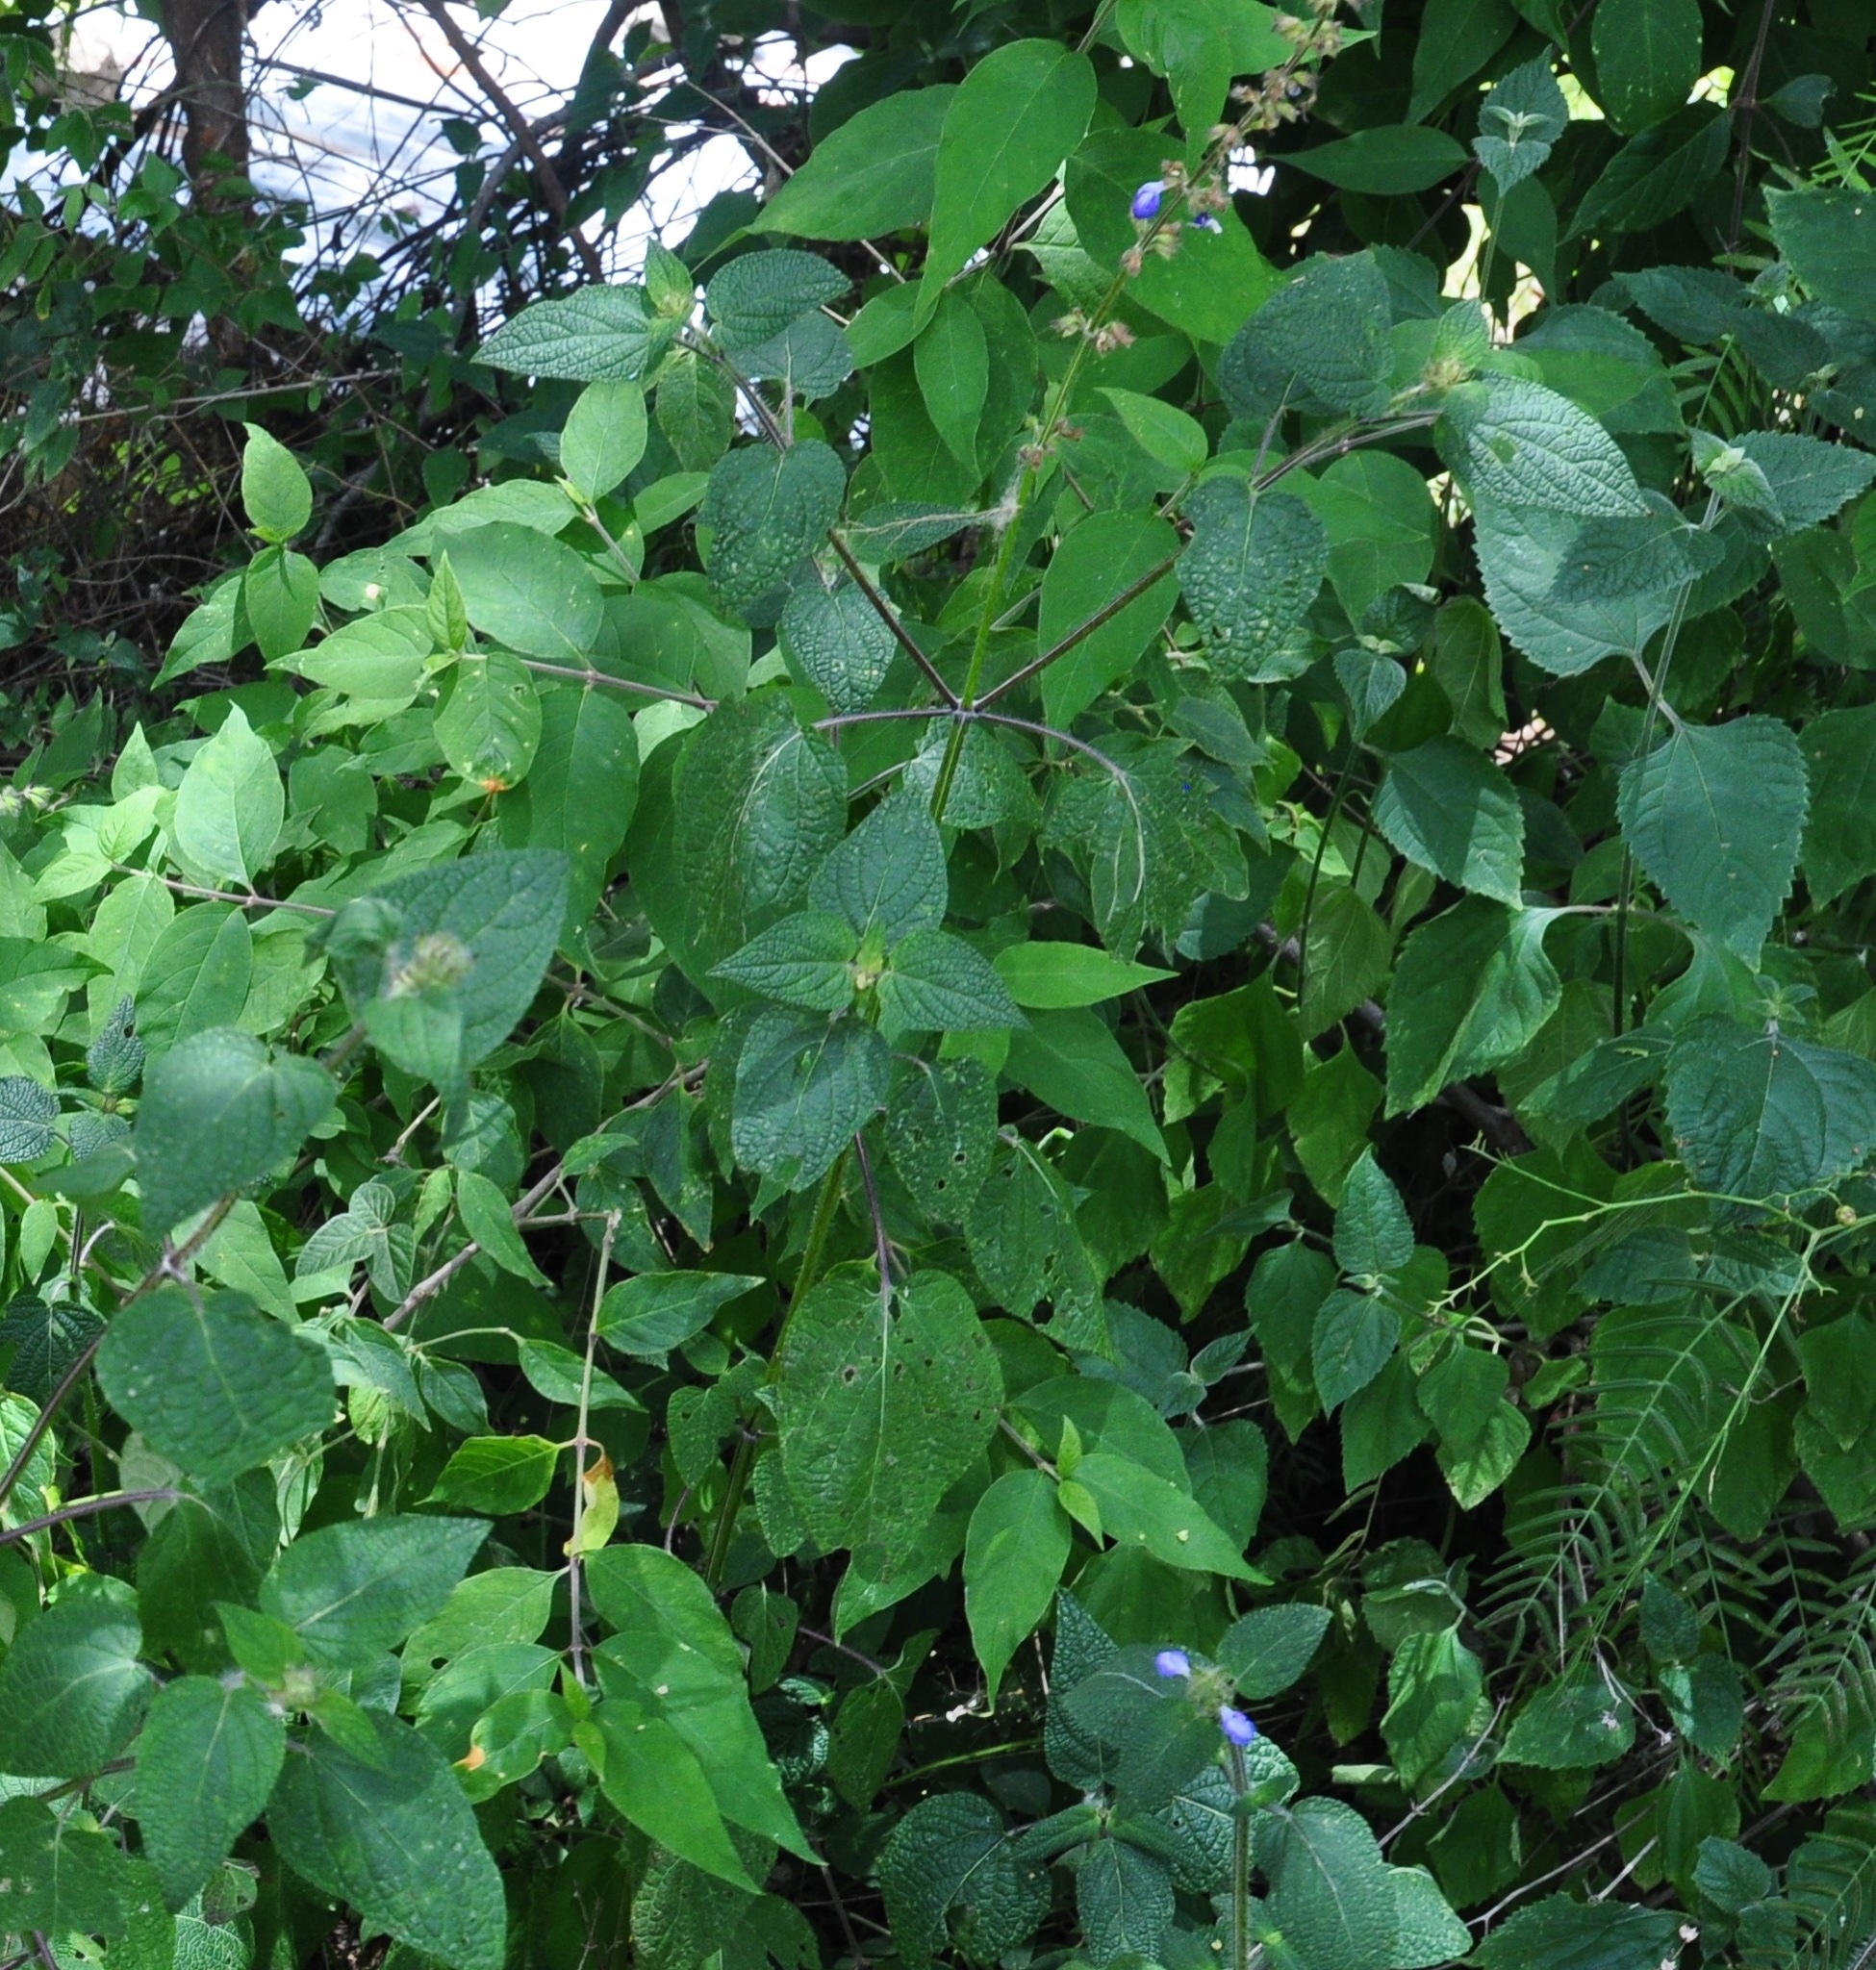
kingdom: Plantae
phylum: Tracheophyta
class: Magnoliopsida
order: Lamiales
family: Lamiaceae
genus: Salvia
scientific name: Salvia circinnata
